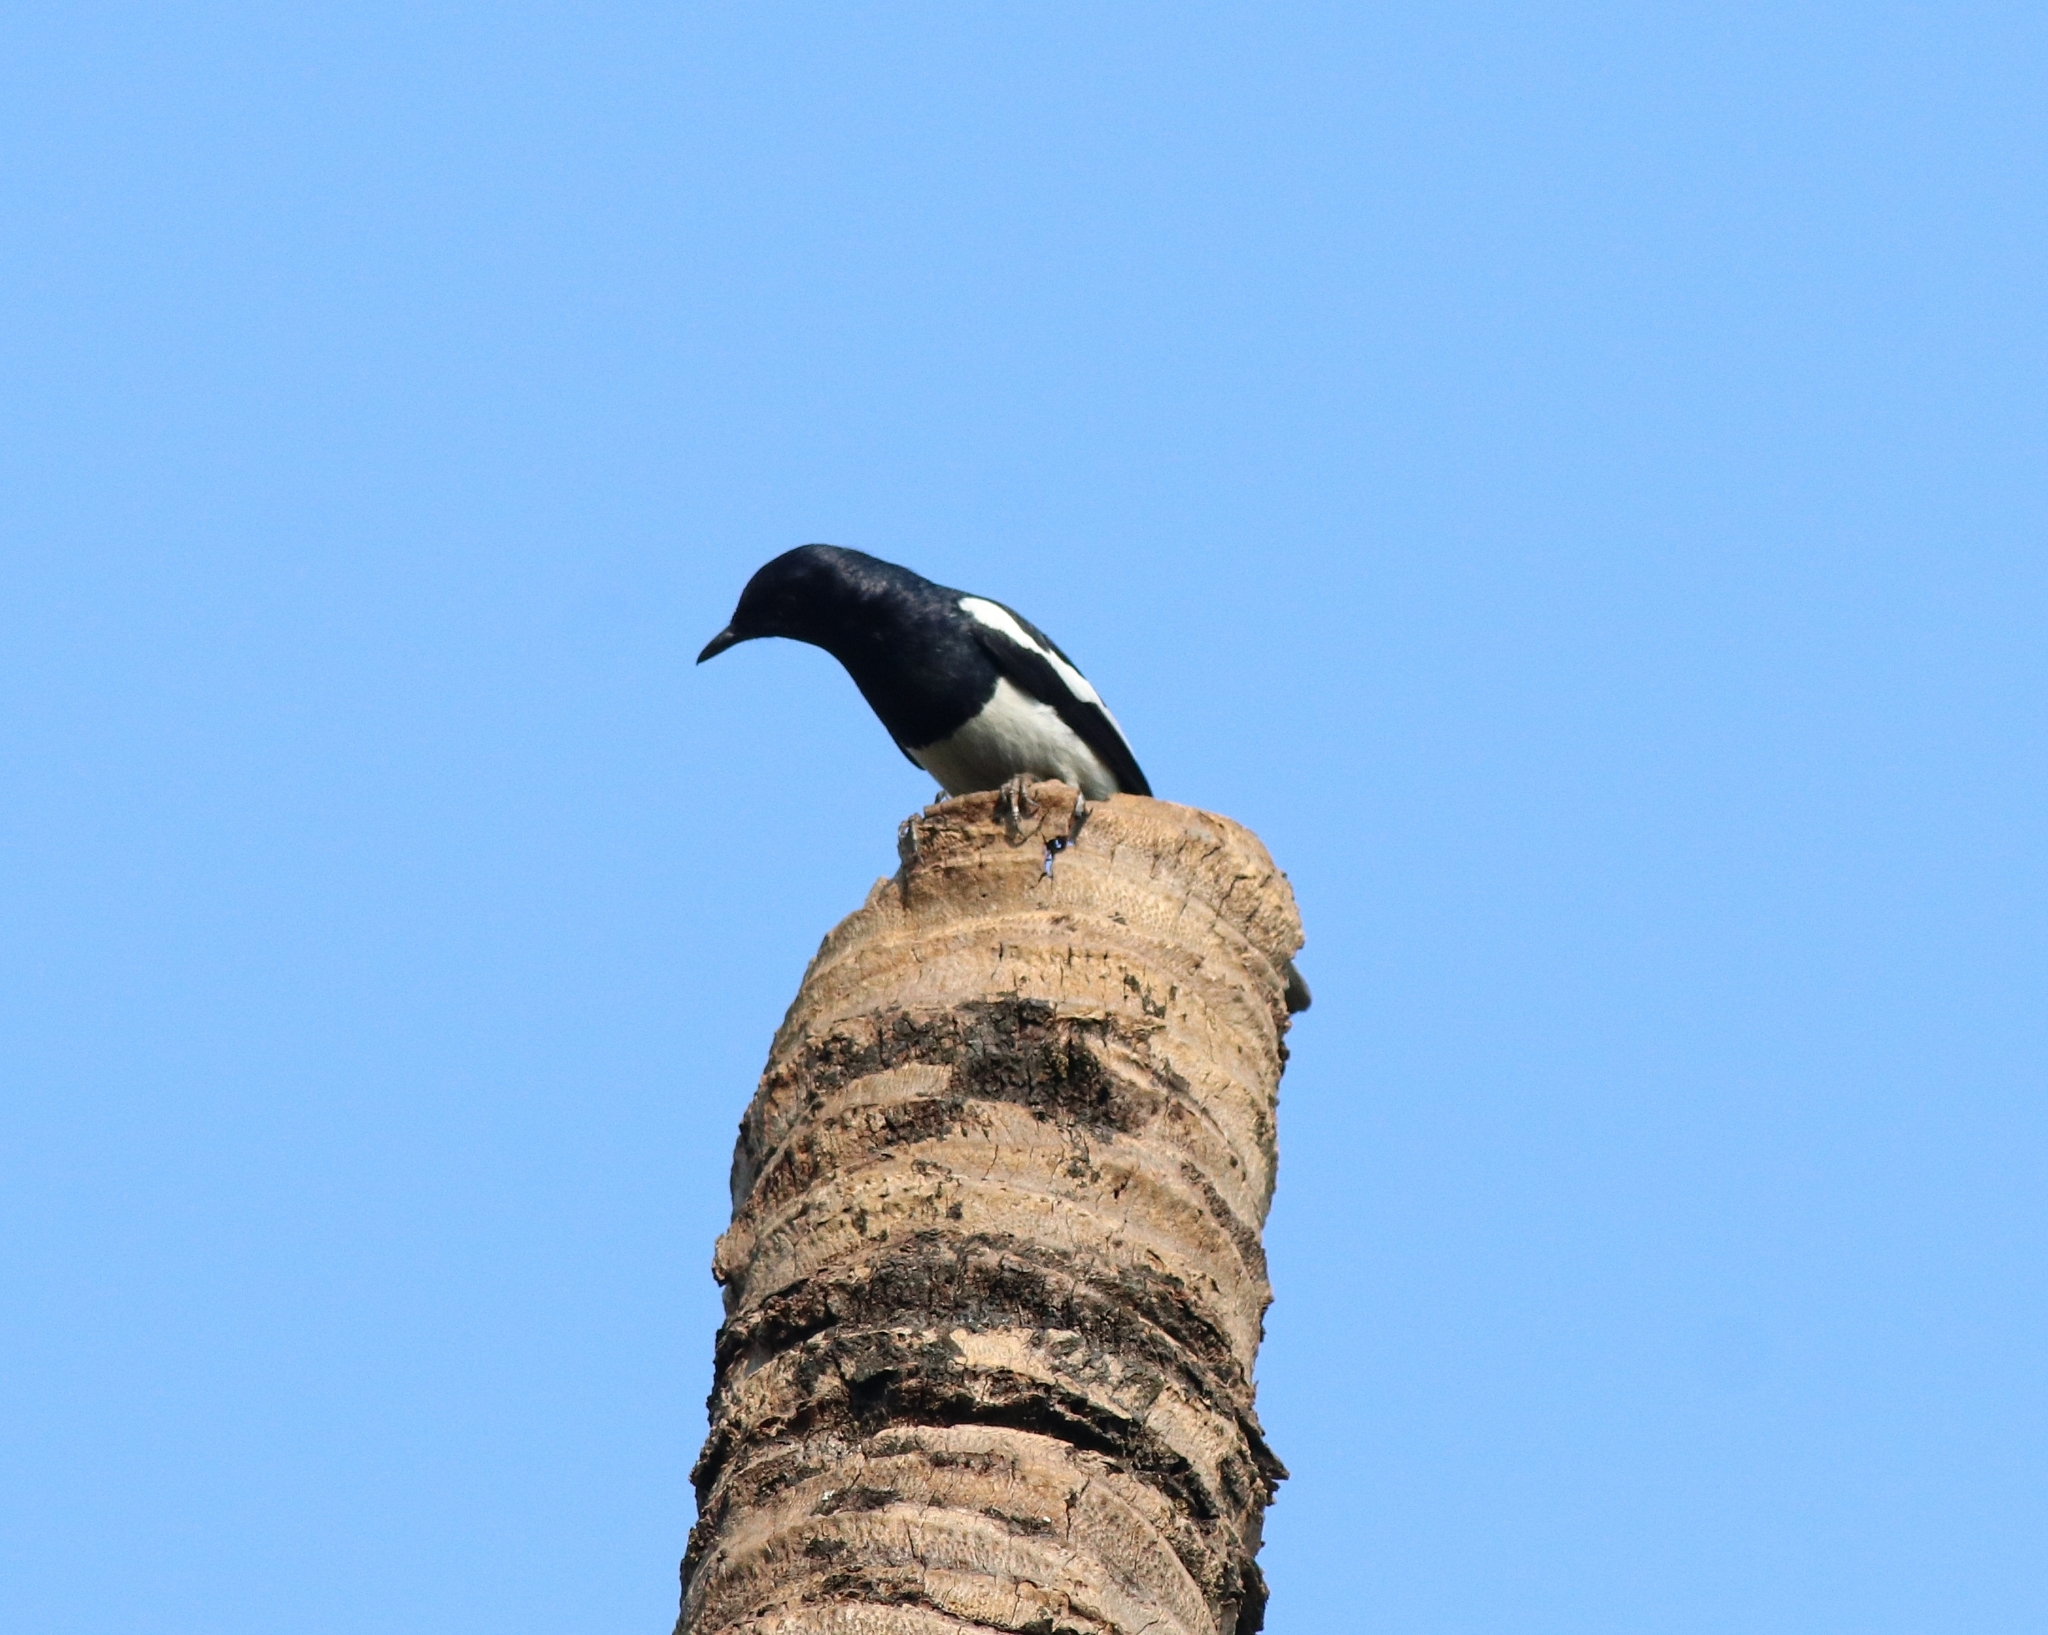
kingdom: Animalia
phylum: Chordata
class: Aves
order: Passeriformes
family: Muscicapidae
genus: Copsychus
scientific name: Copsychus saularis
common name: Oriental magpie-robin
